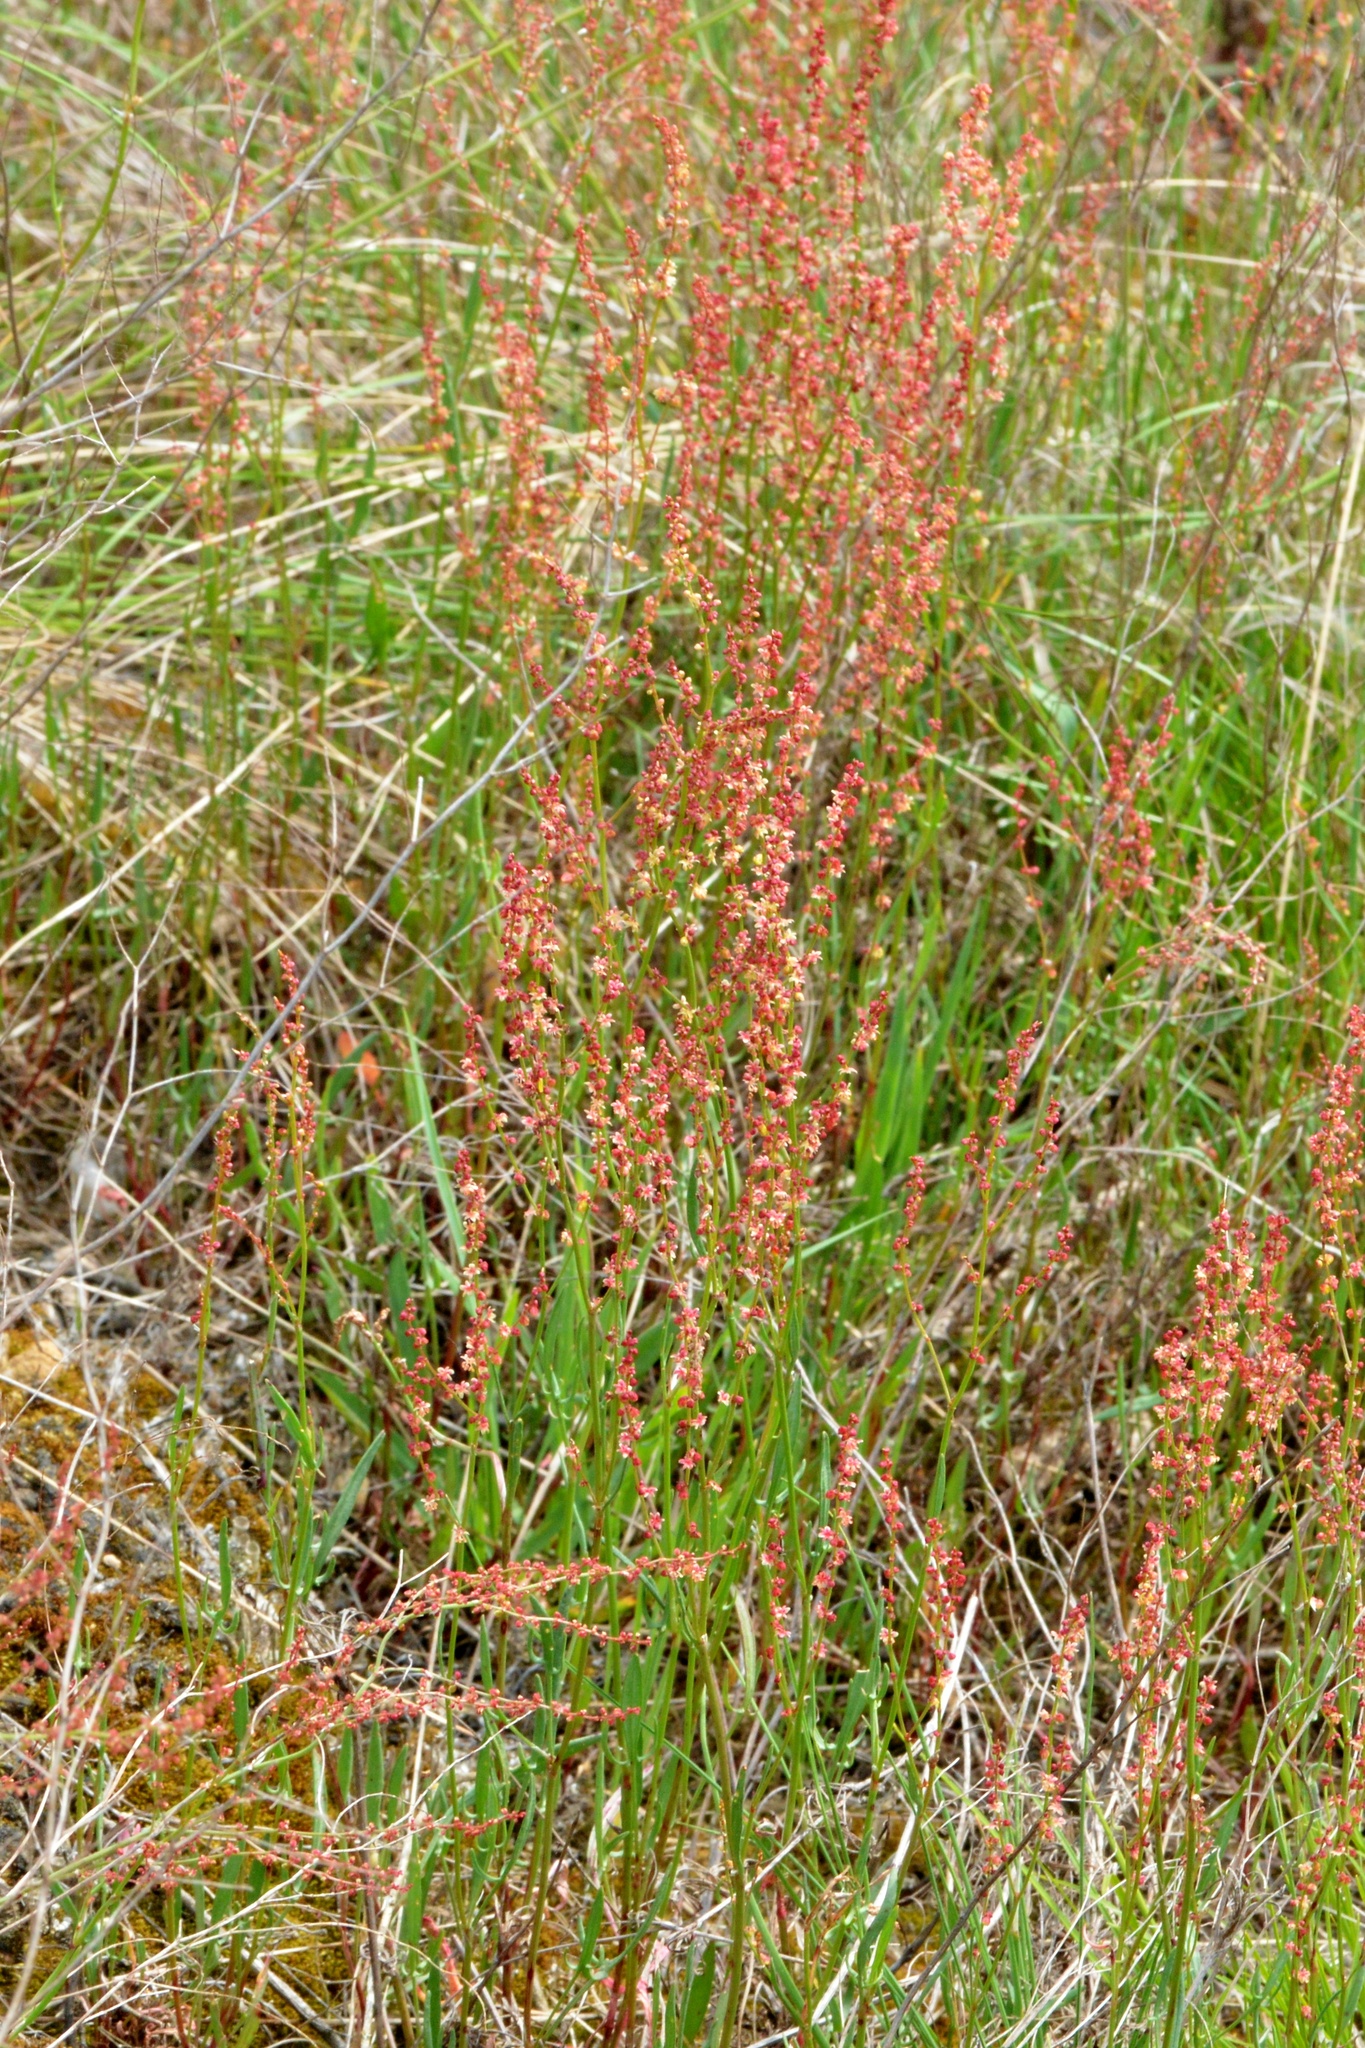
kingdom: Plantae
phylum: Tracheophyta
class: Magnoliopsida
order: Caryophyllales
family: Polygonaceae
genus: Rumex
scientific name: Rumex acetosella
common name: Common sheep sorrel
